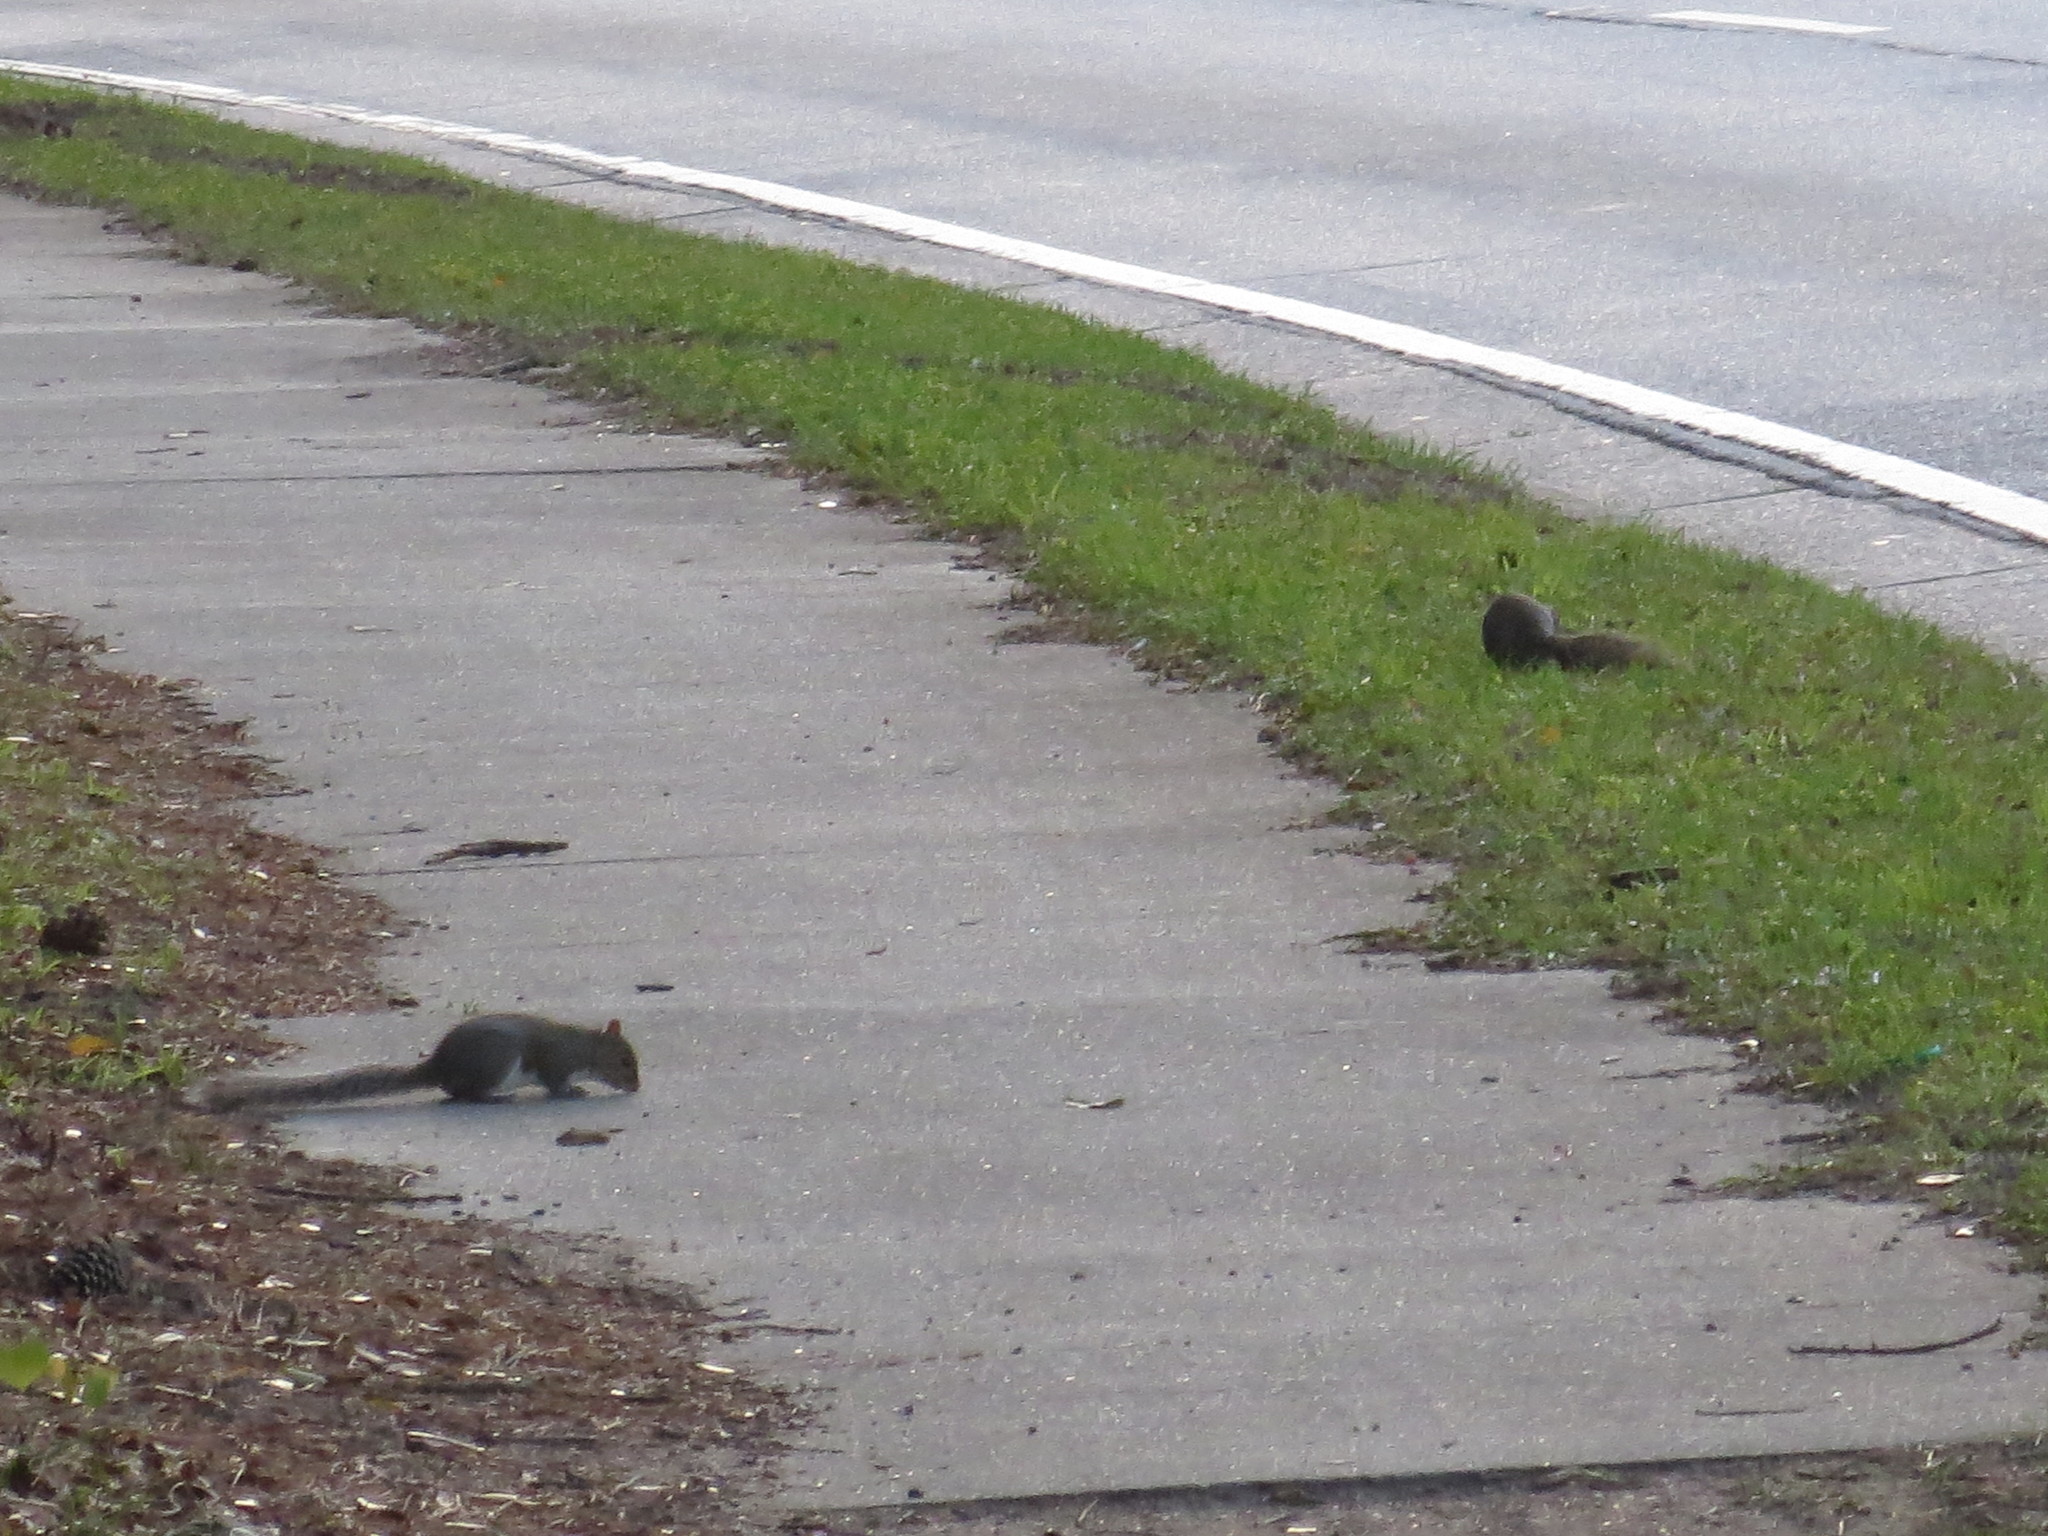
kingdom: Animalia
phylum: Chordata
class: Mammalia
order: Rodentia
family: Sciuridae
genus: Sciurus
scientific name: Sciurus carolinensis
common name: Eastern gray squirrel
